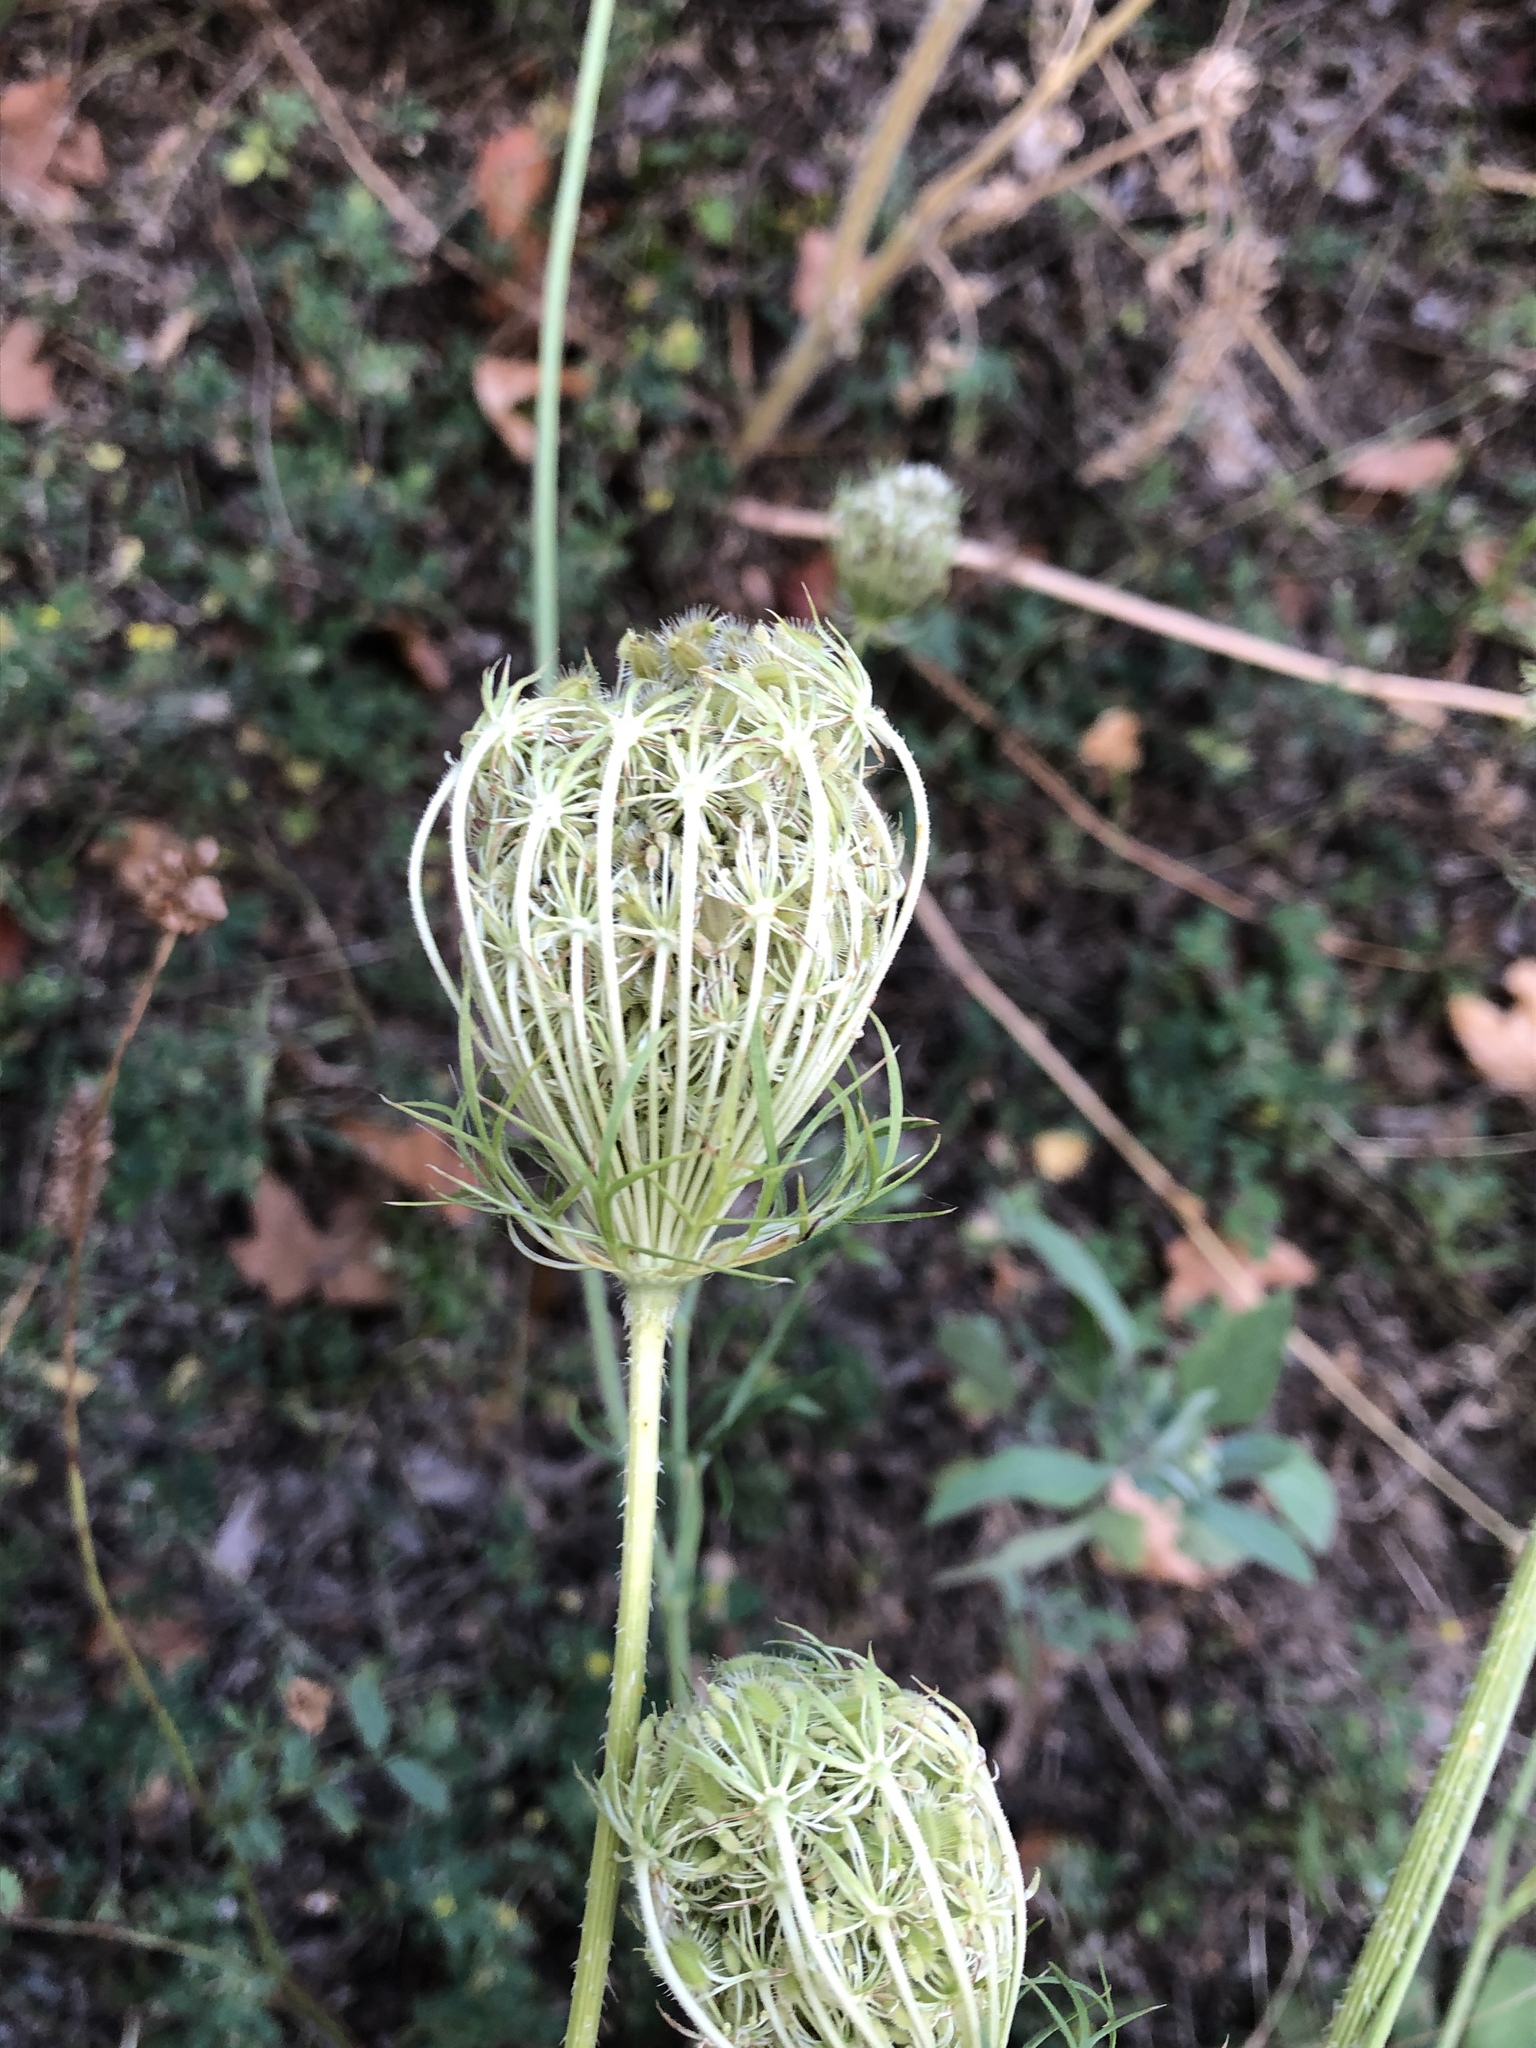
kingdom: Plantae
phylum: Tracheophyta
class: Magnoliopsida
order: Apiales
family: Apiaceae
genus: Daucus
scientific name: Daucus carota
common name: Wild carrot
